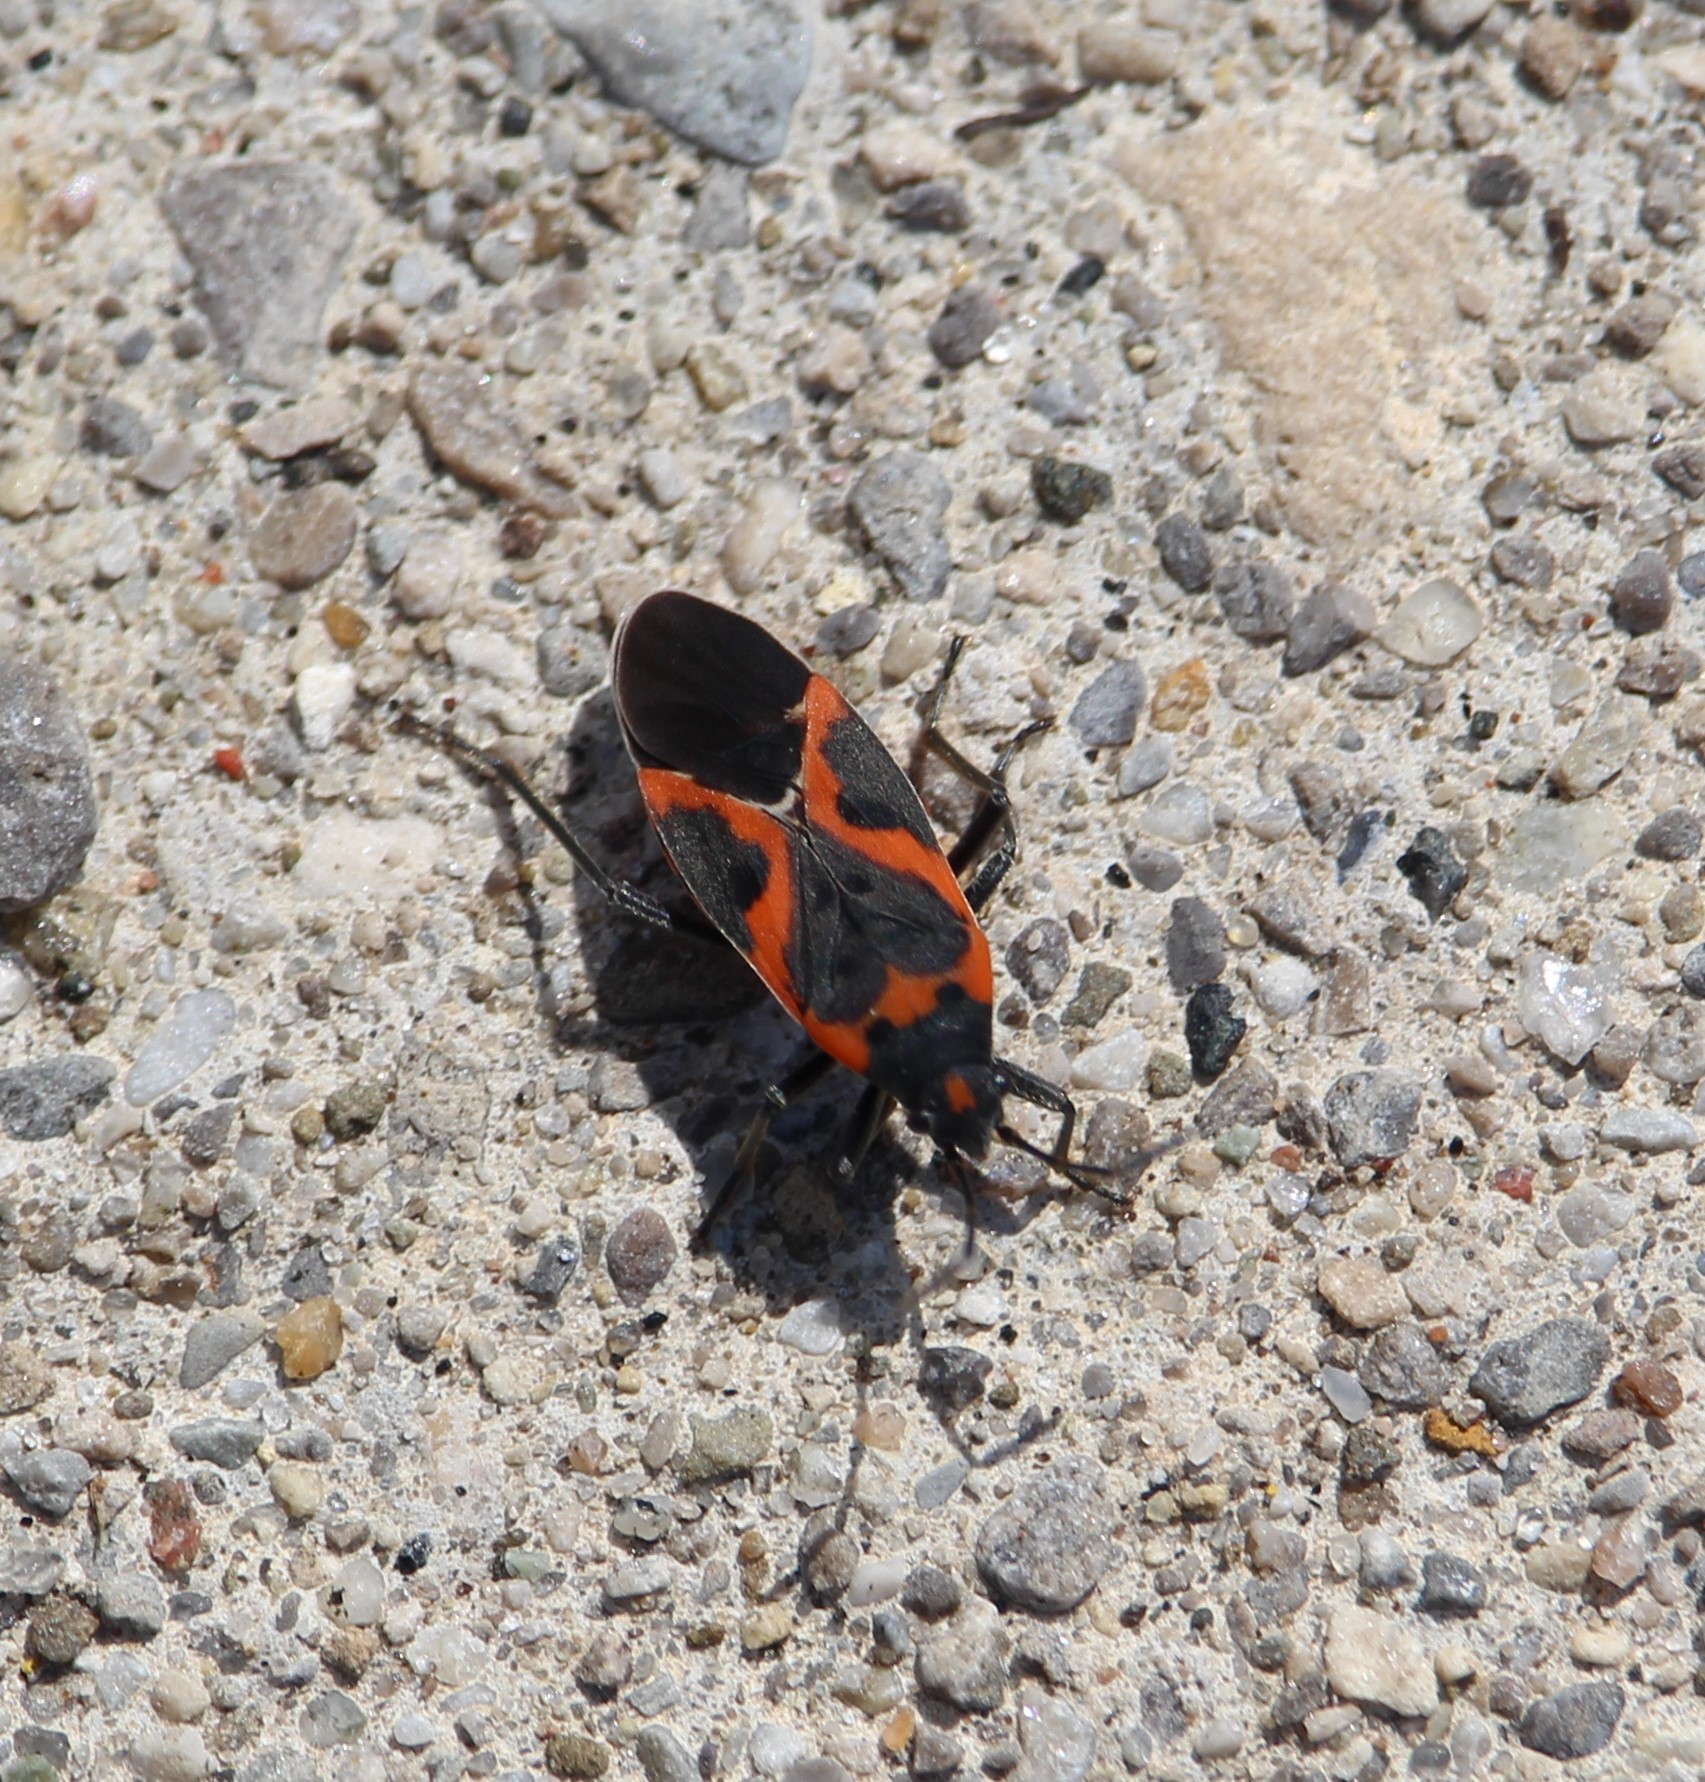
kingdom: Animalia
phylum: Arthropoda
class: Insecta
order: Hemiptera
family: Lygaeidae
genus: Lygaeus
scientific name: Lygaeus kalmii
